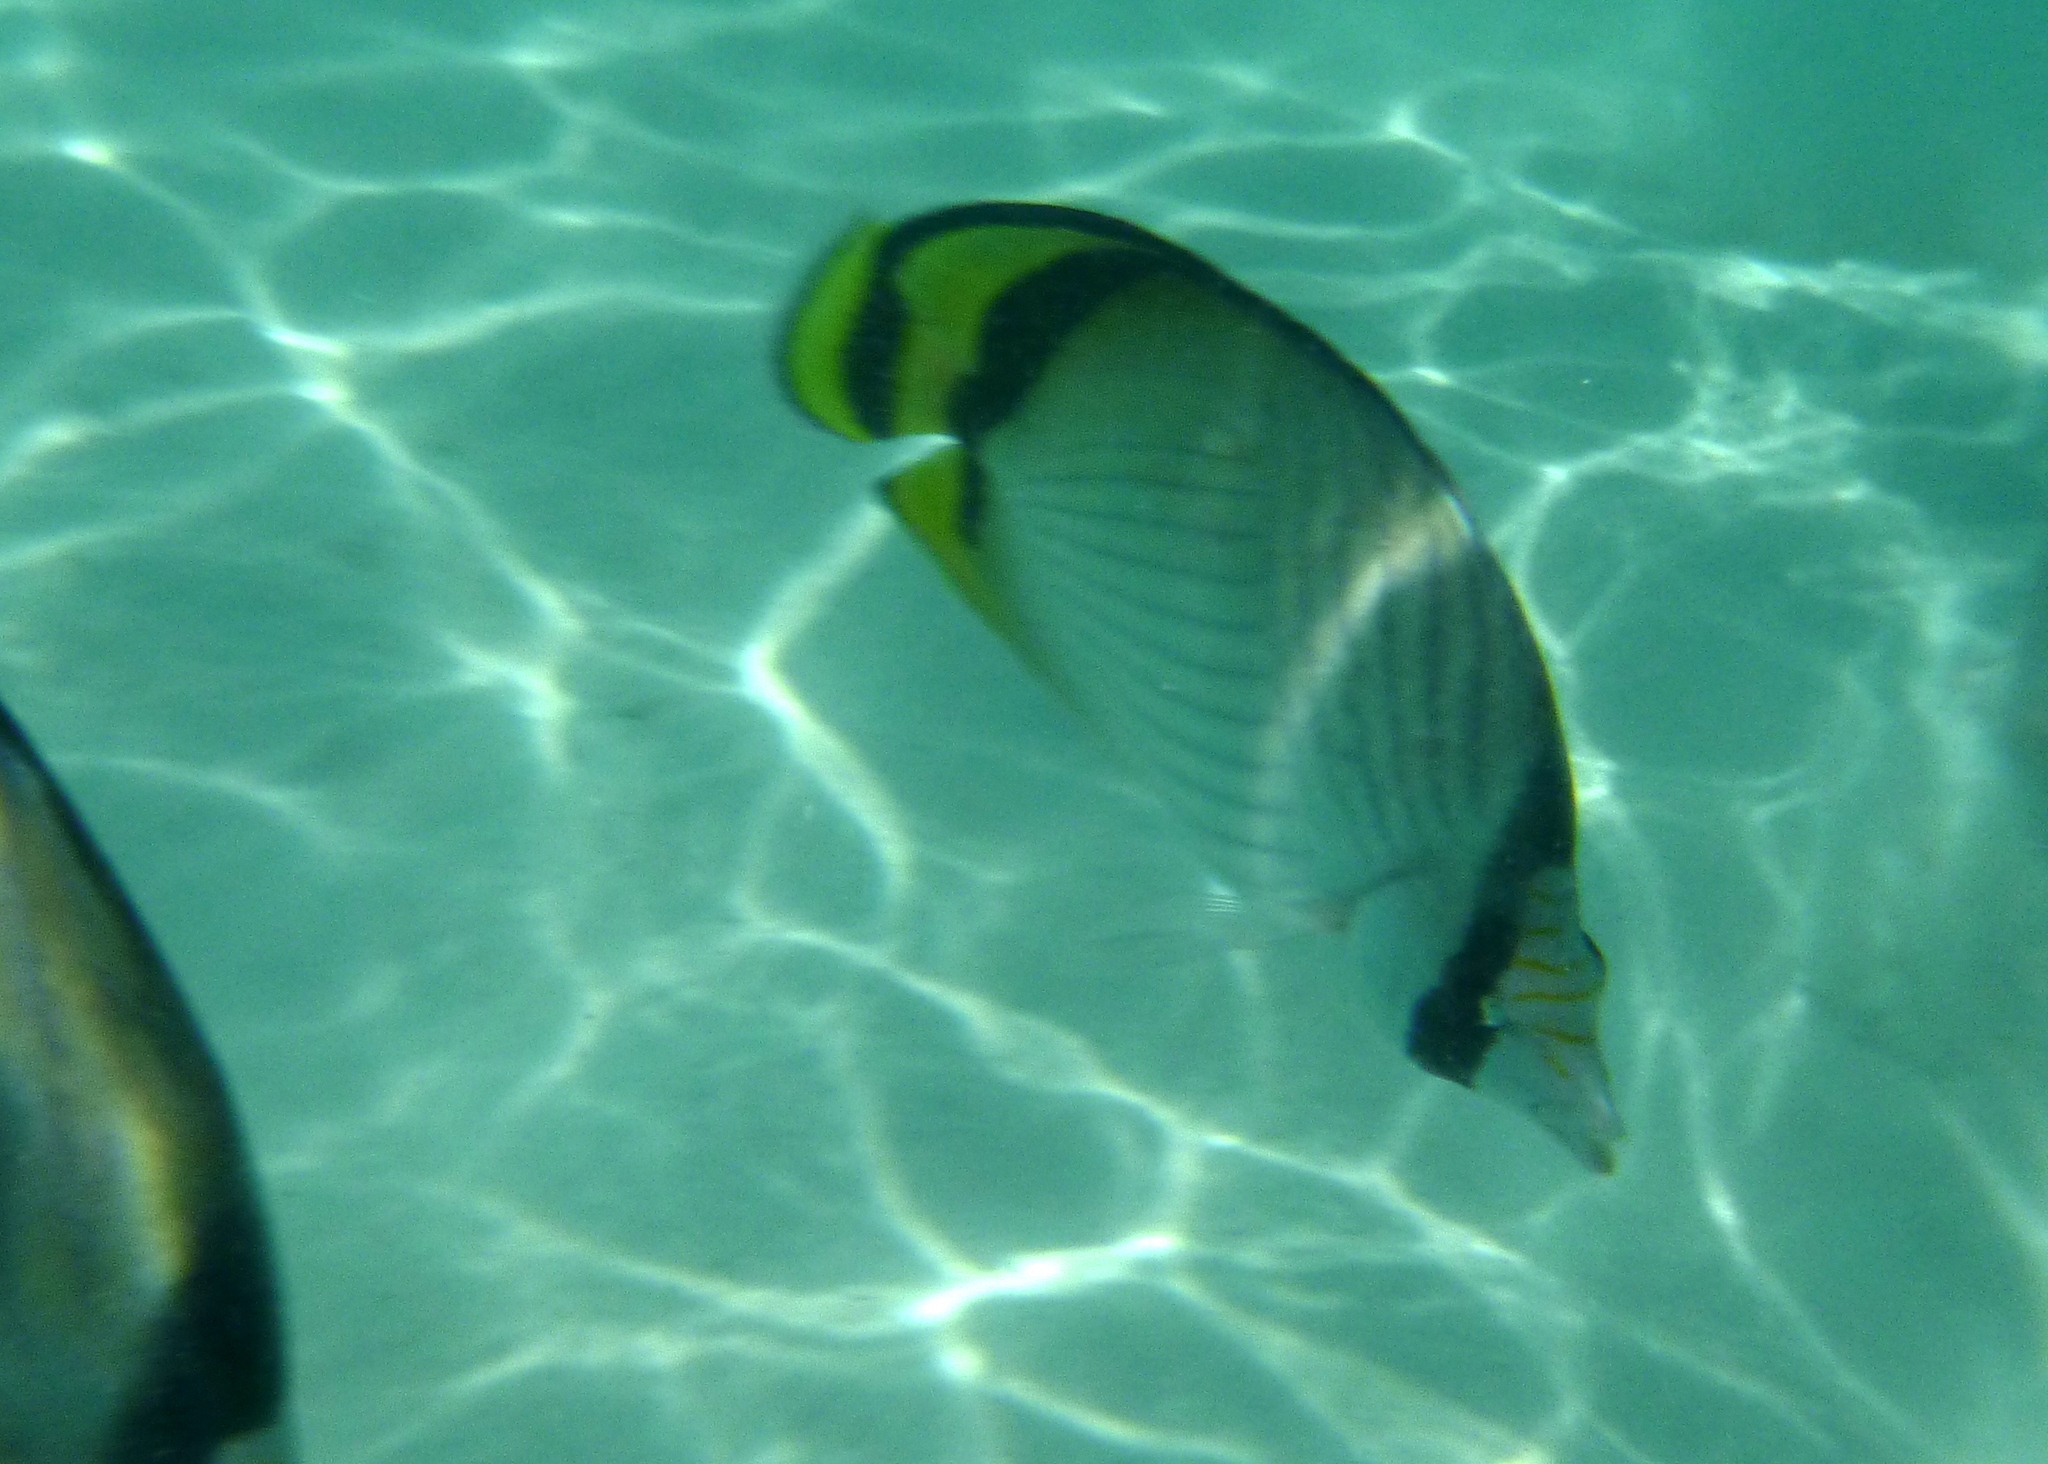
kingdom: Animalia
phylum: Chordata
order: Perciformes
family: Chaetodontidae
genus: Chaetodon
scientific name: Chaetodon vagabundus
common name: Vagabond butterflyfish
